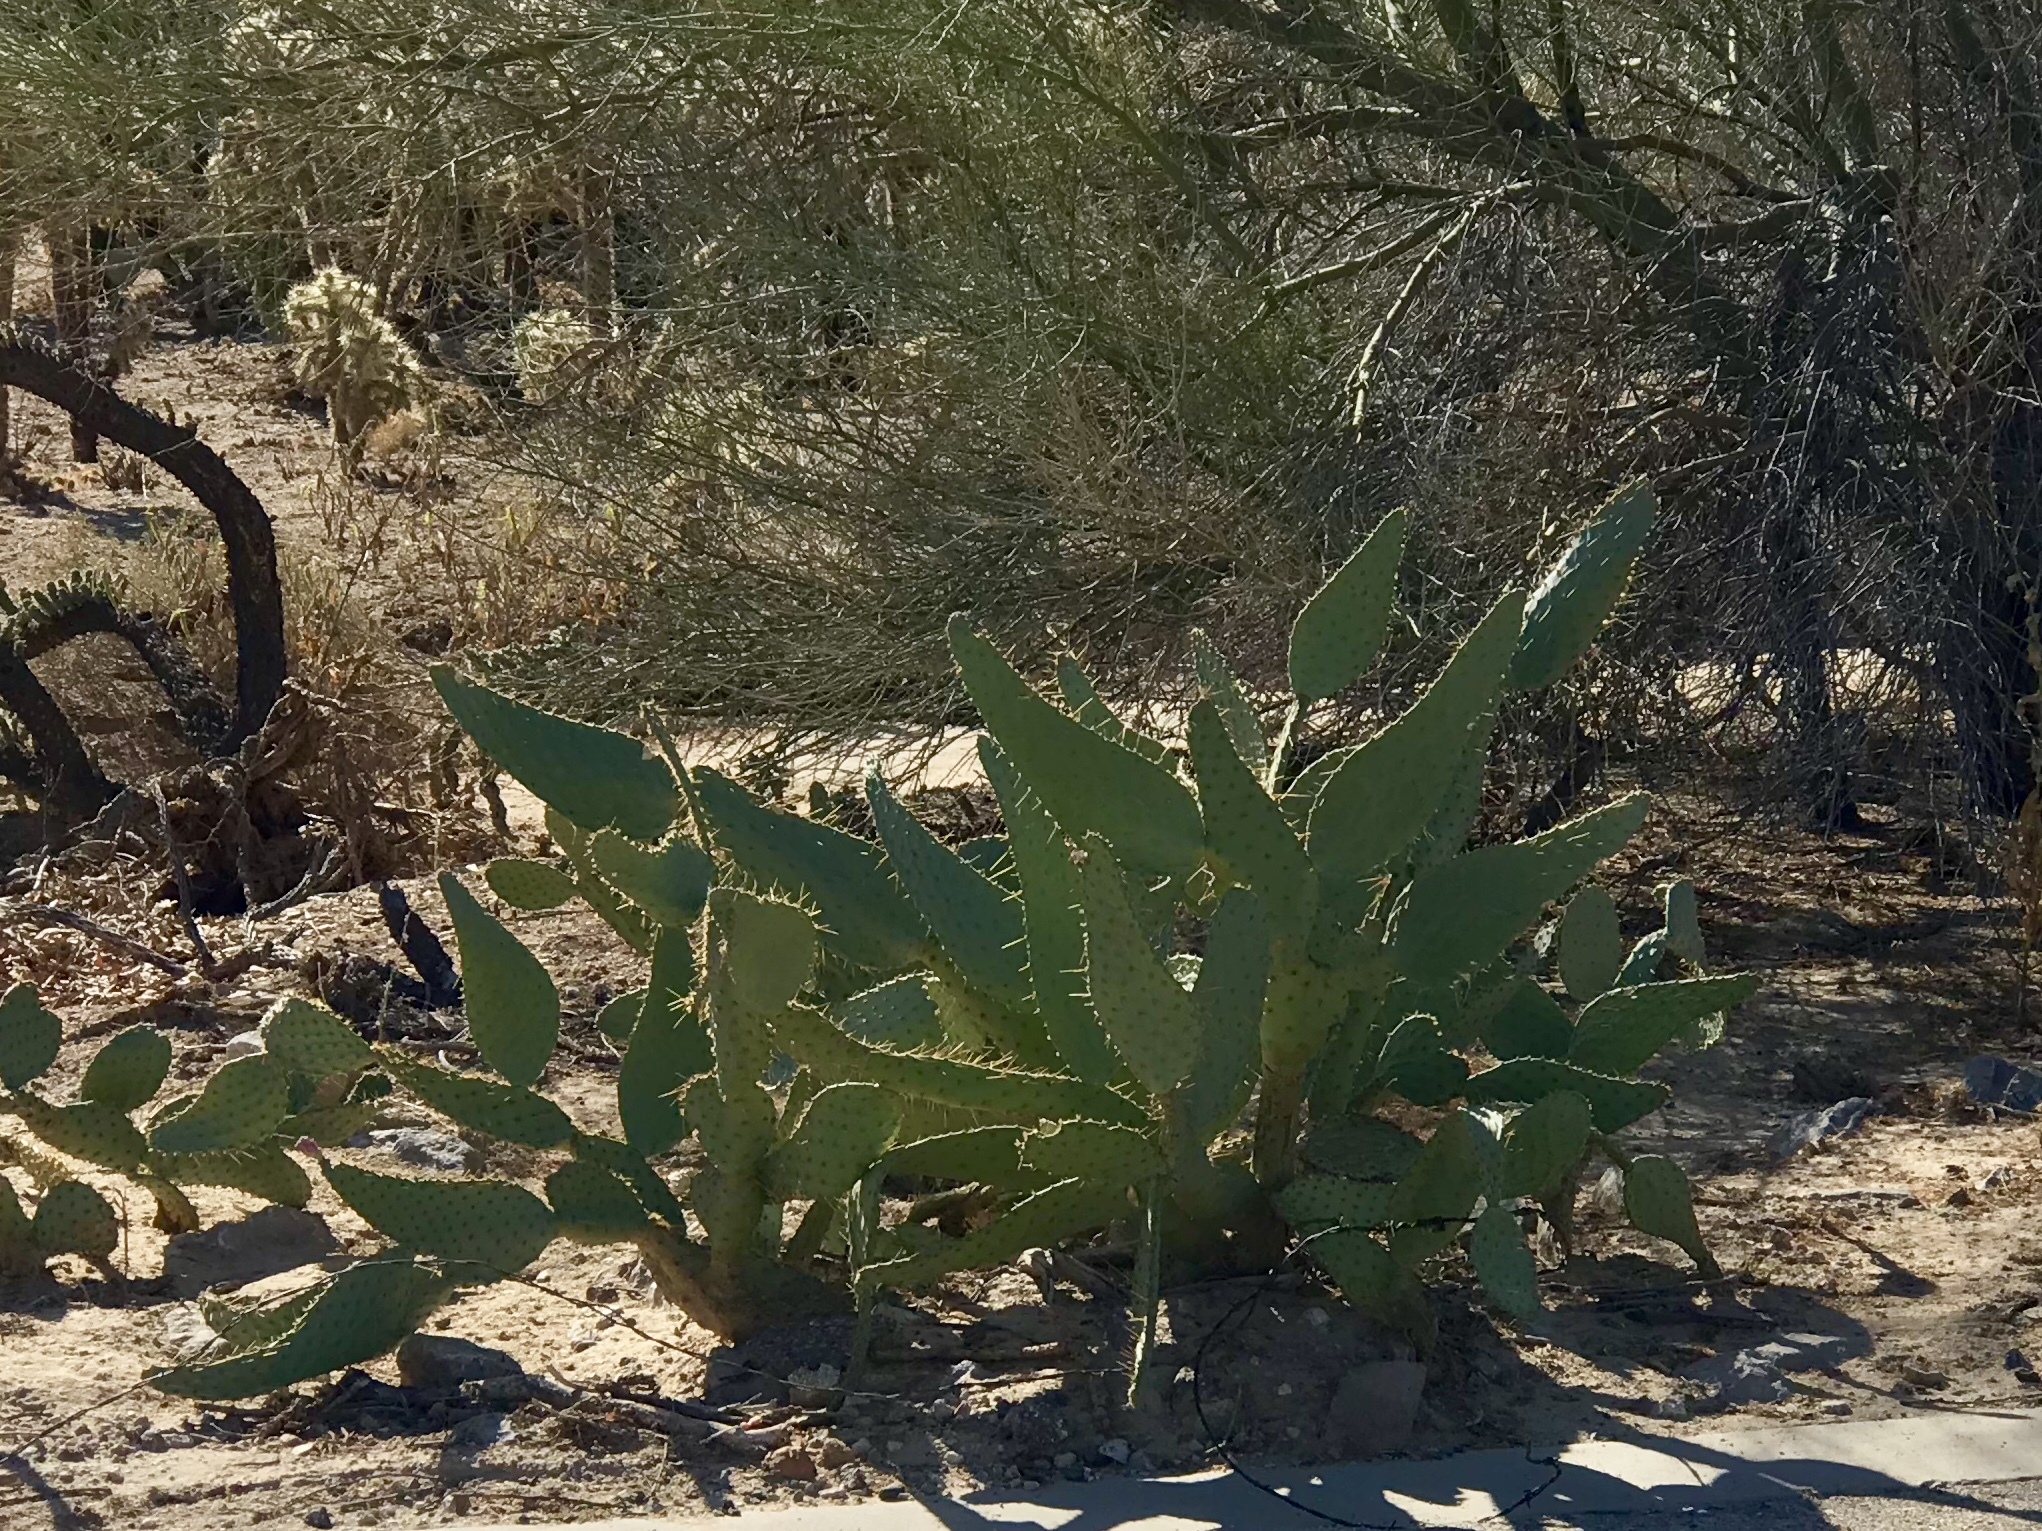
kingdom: Plantae
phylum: Tracheophyta
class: Magnoliopsida
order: Caryophyllales
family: Cactaceae
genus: Opuntia
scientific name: Opuntia engelmannii
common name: Cactus-apple
